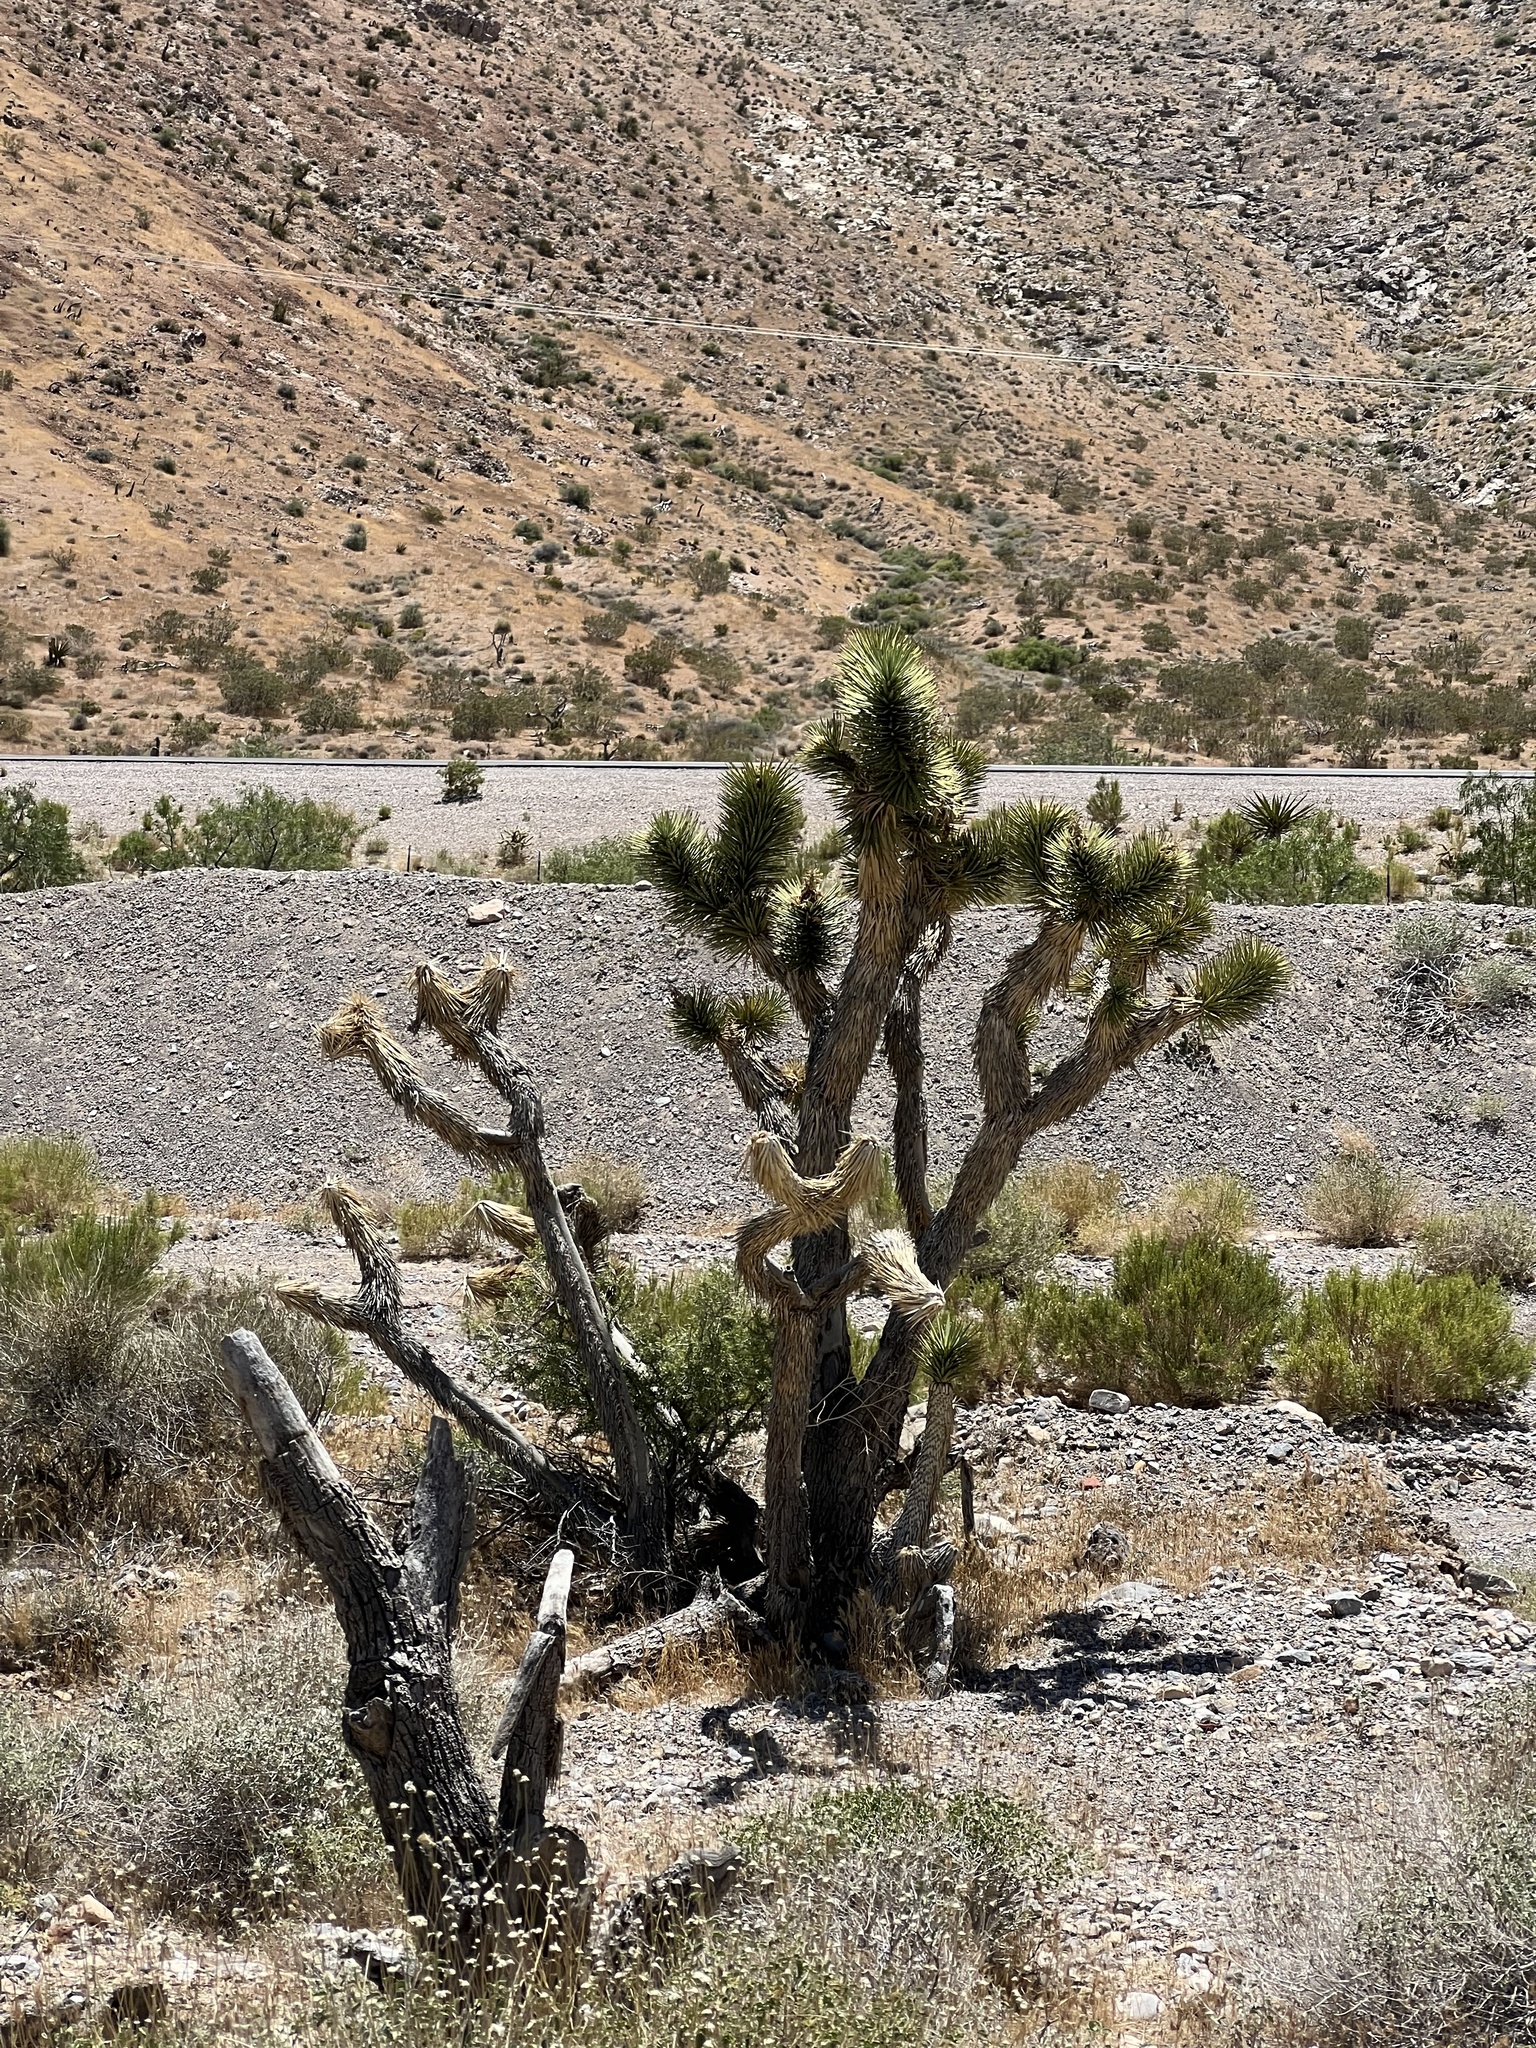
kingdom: Plantae
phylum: Tracheophyta
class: Liliopsida
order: Asparagales
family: Asparagaceae
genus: Yucca
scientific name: Yucca brevifolia
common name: Joshua tree
